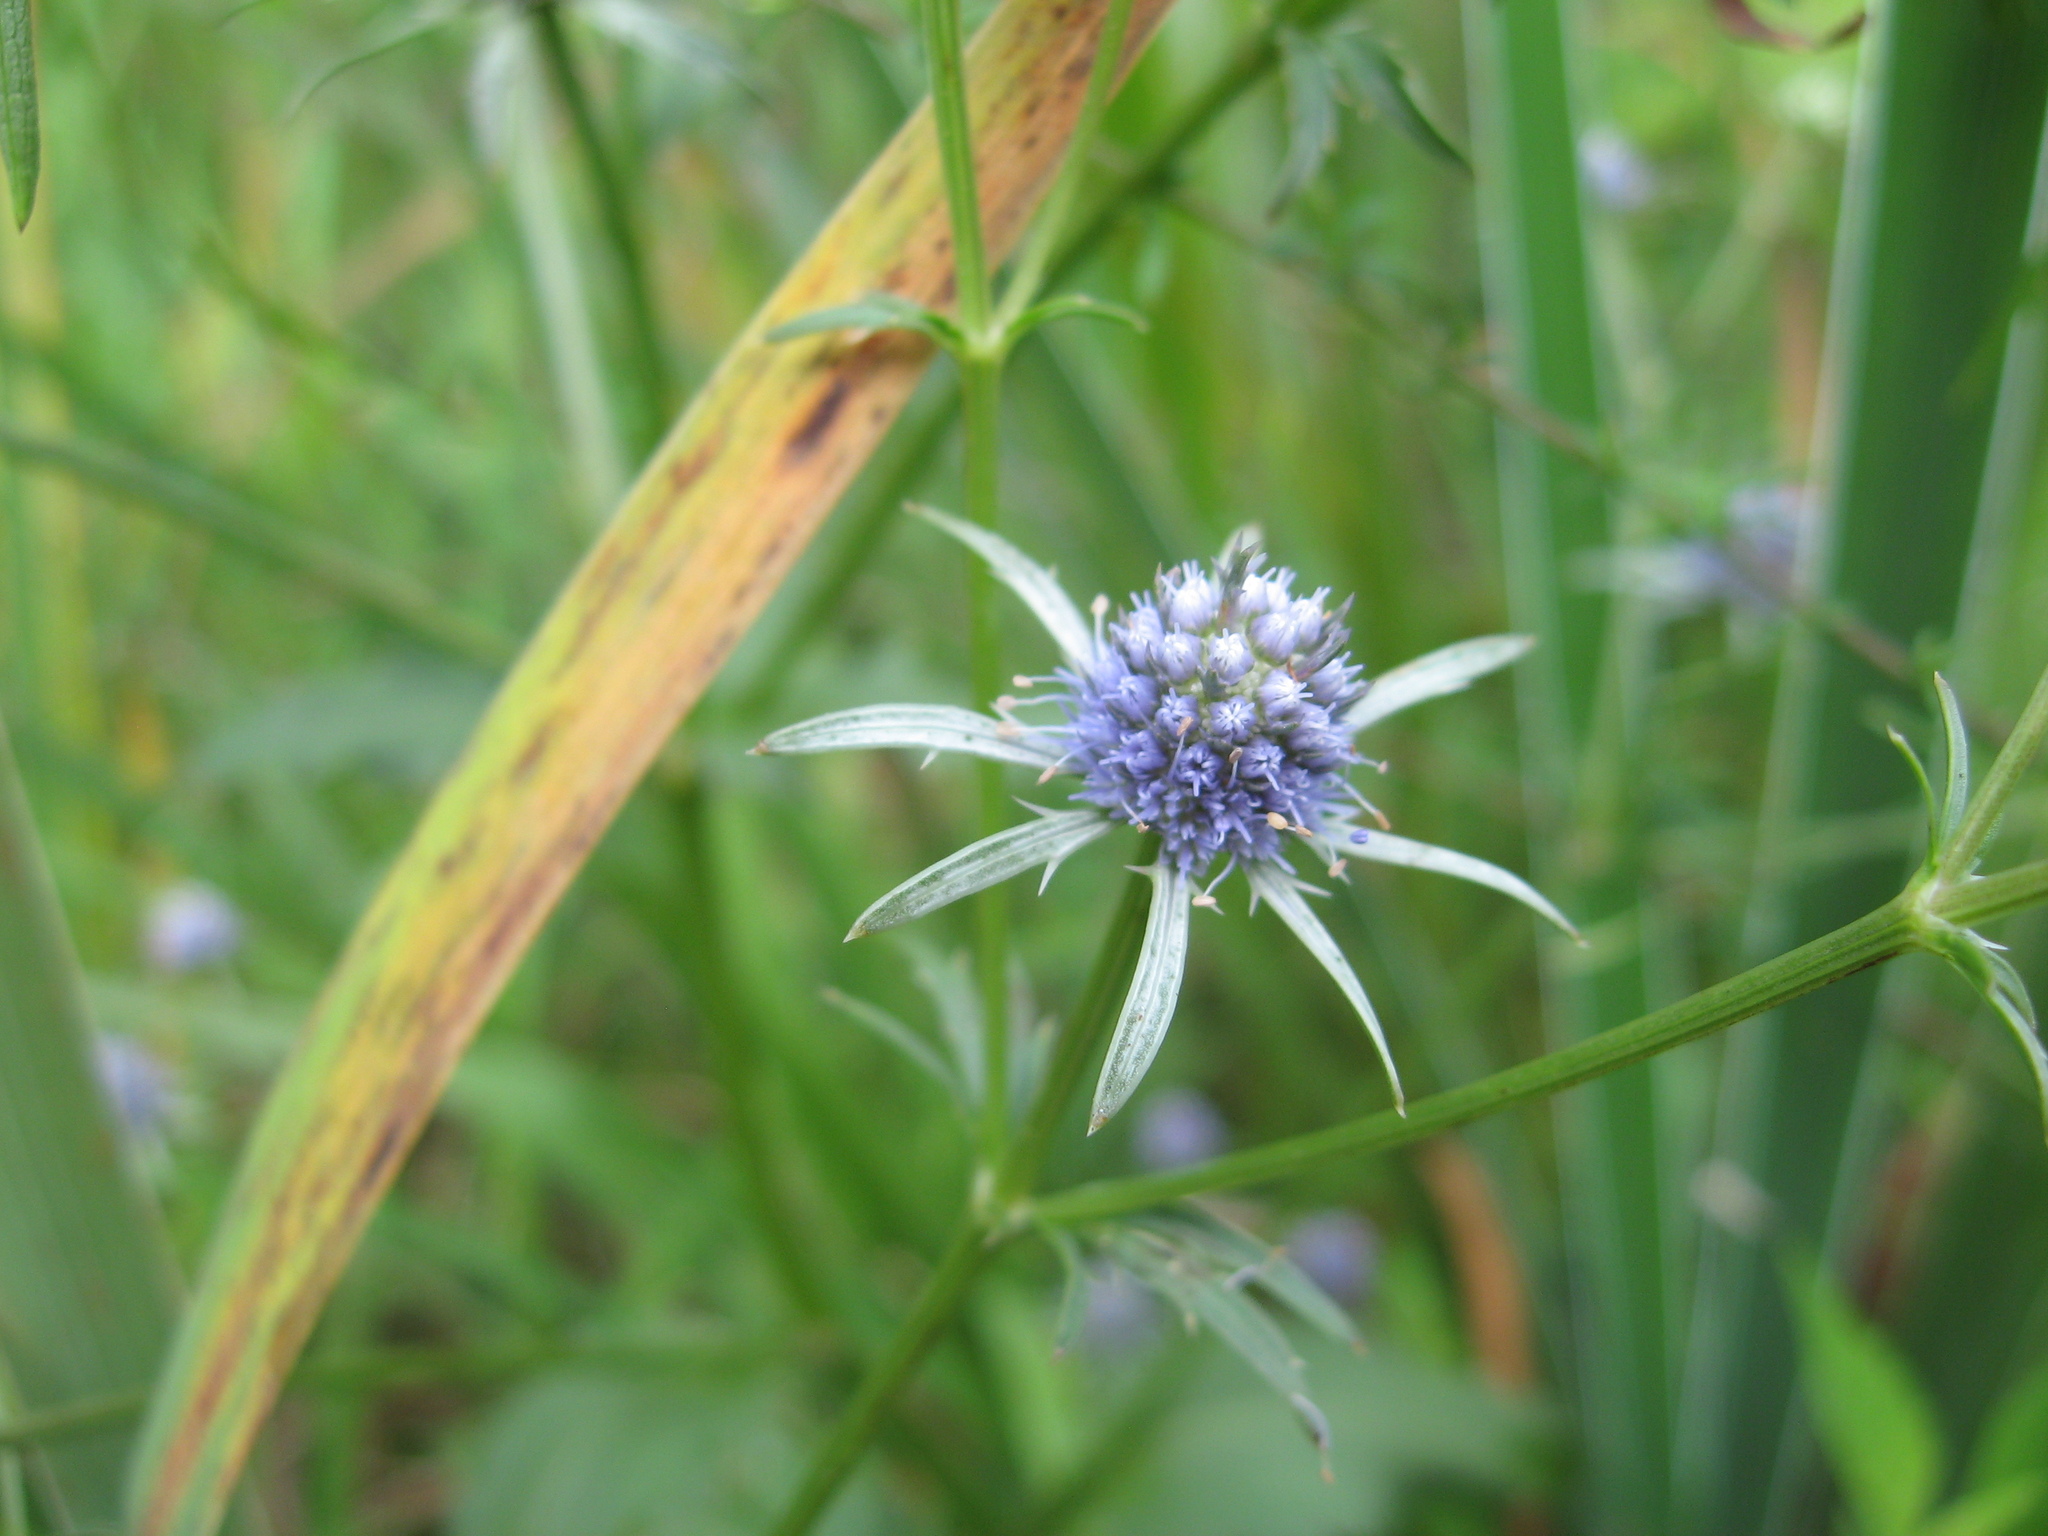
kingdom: Plantae
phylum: Tracheophyta
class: Magnoliopsida
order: Apiales
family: Apiaceae
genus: Eryngium
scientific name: Eryngium integrifolium
